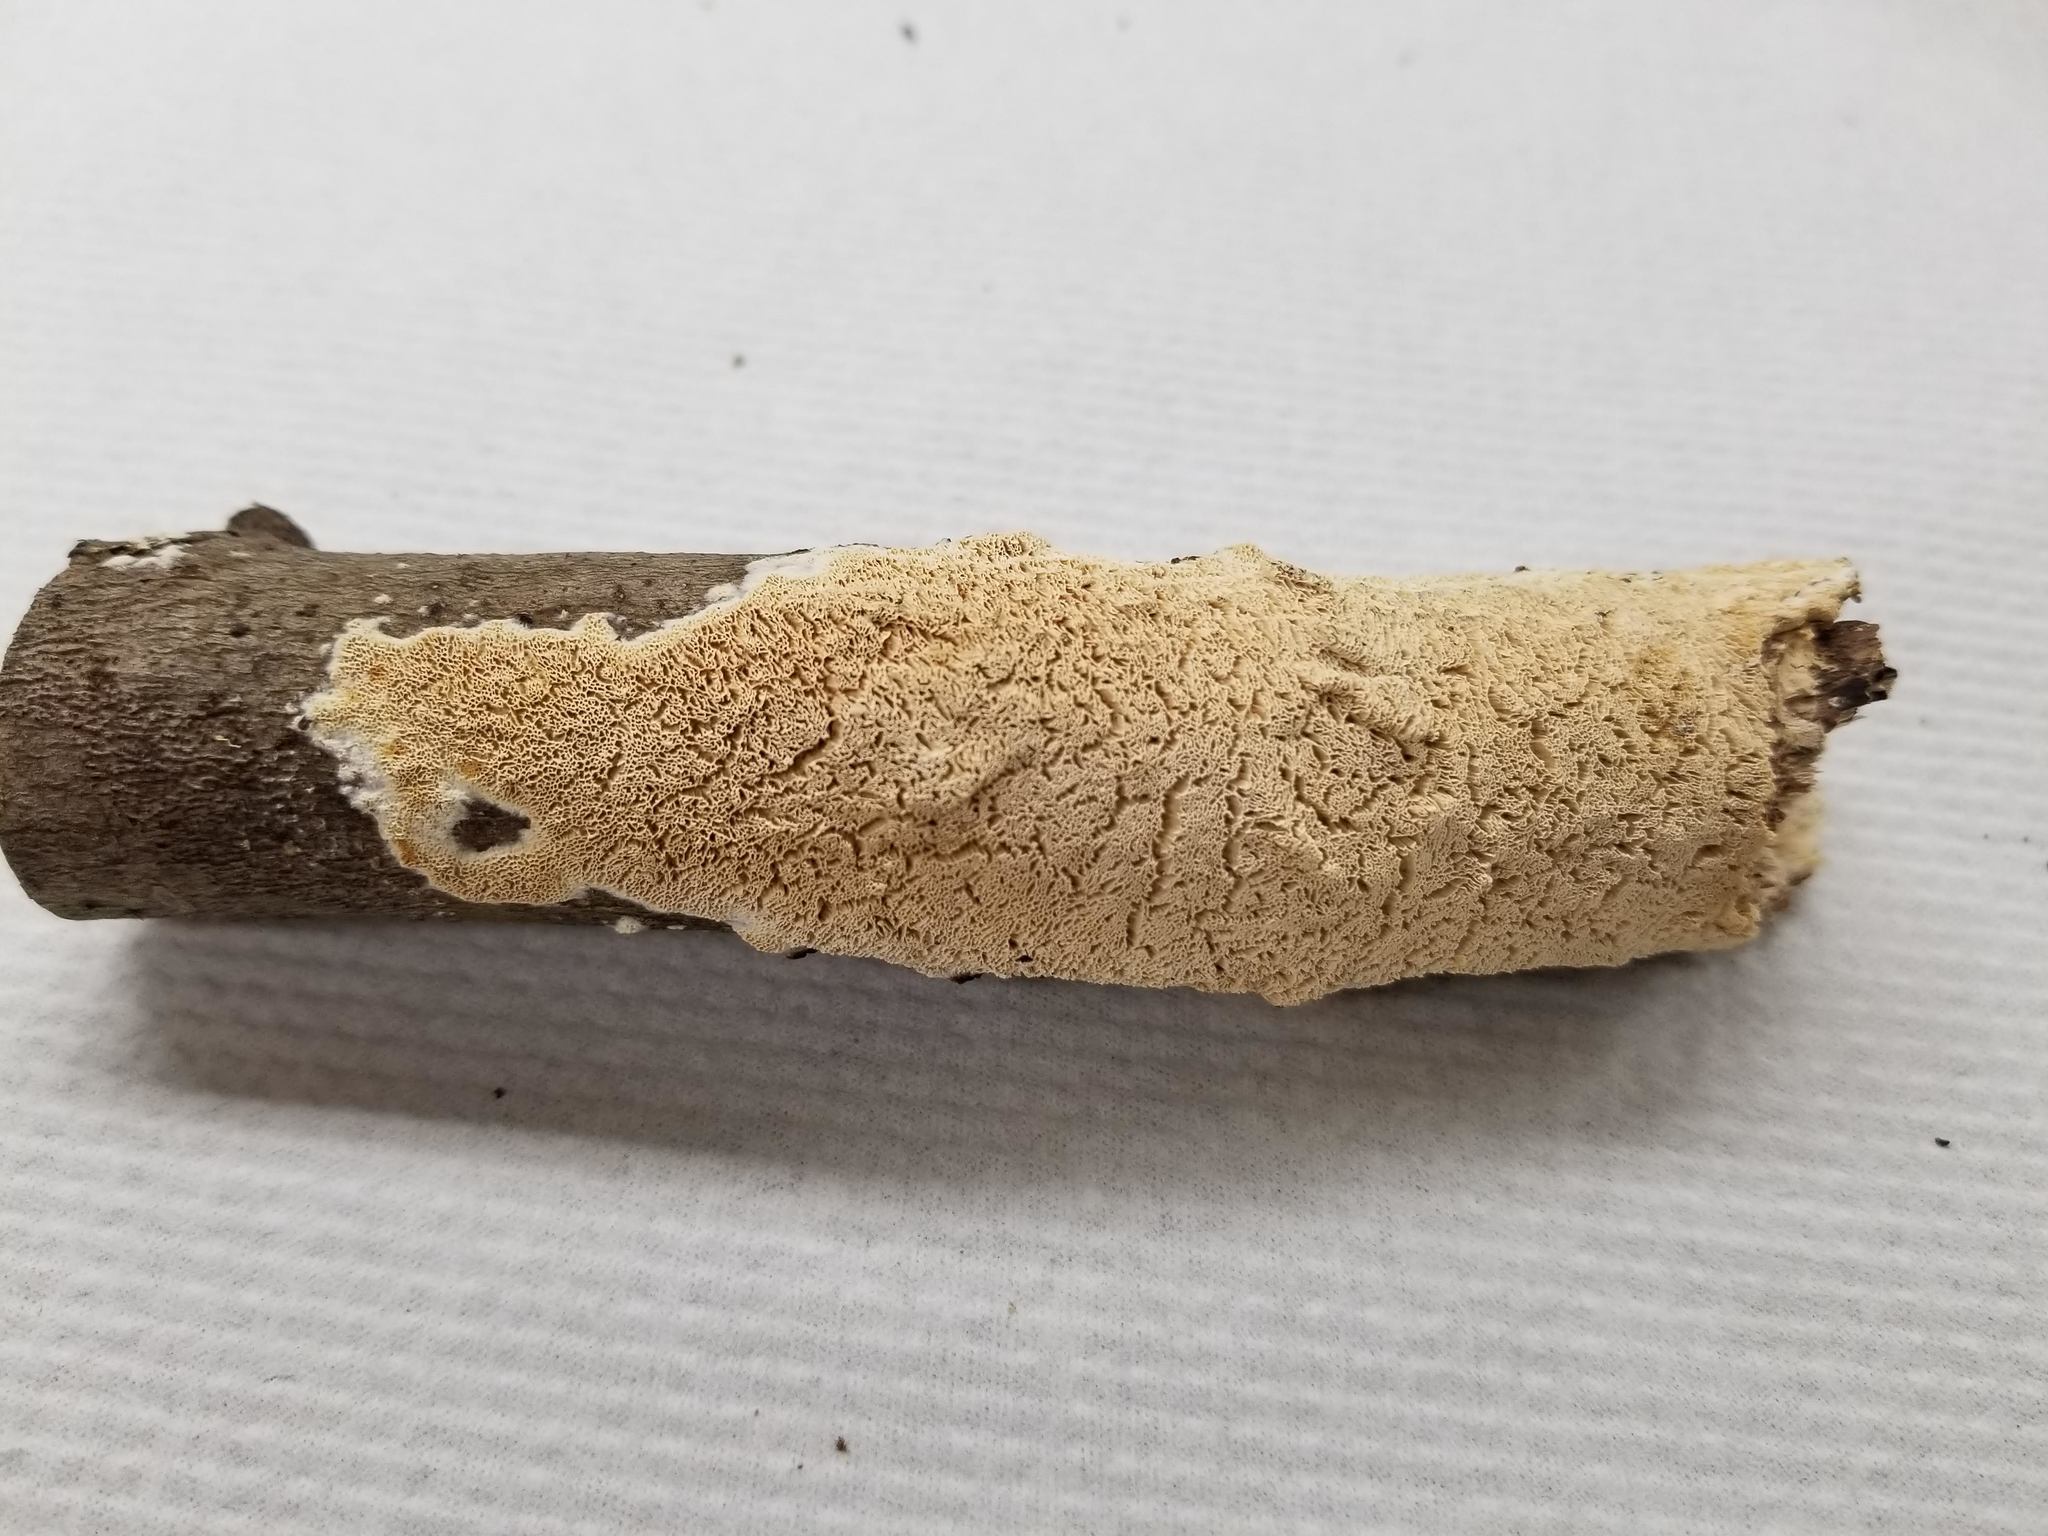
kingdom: Fungi
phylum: Basidiomycota
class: Agaricomycetes
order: Hymenochaetales
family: Schizoporaceae
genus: Schizopora
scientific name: Schizopora paradoxa
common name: Split porecrust
